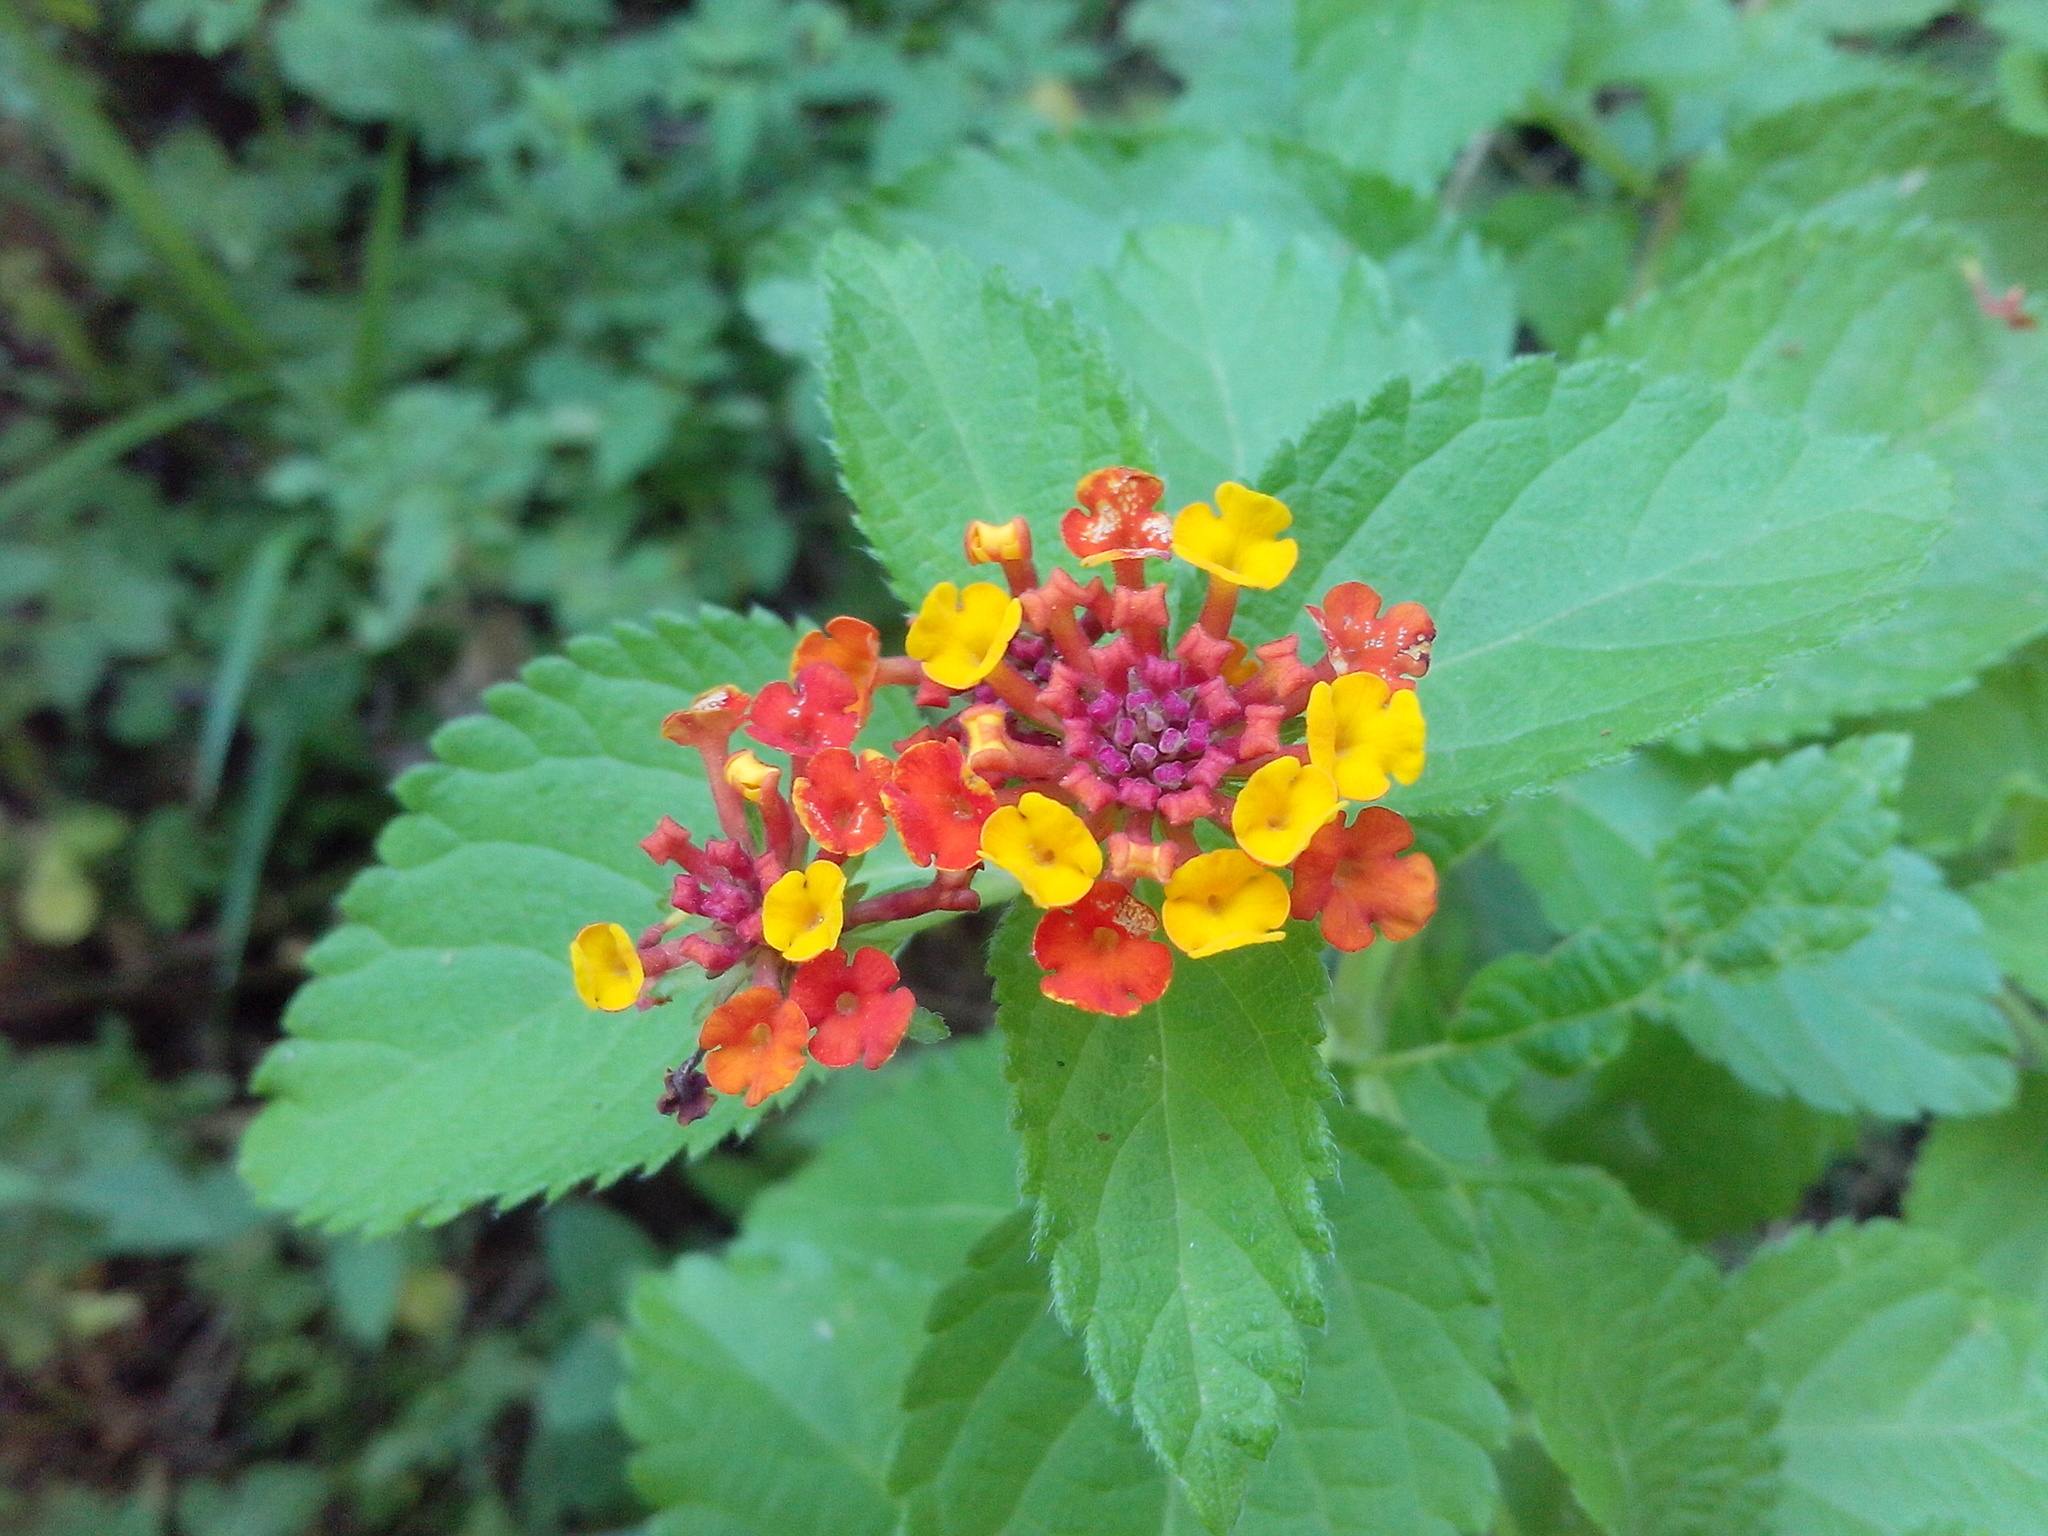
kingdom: Plantae
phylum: Tracheophyta
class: Magnoliopsida
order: Lamiales
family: Verbenaceae
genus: Lantana
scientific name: Lantana camara
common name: Lantana
